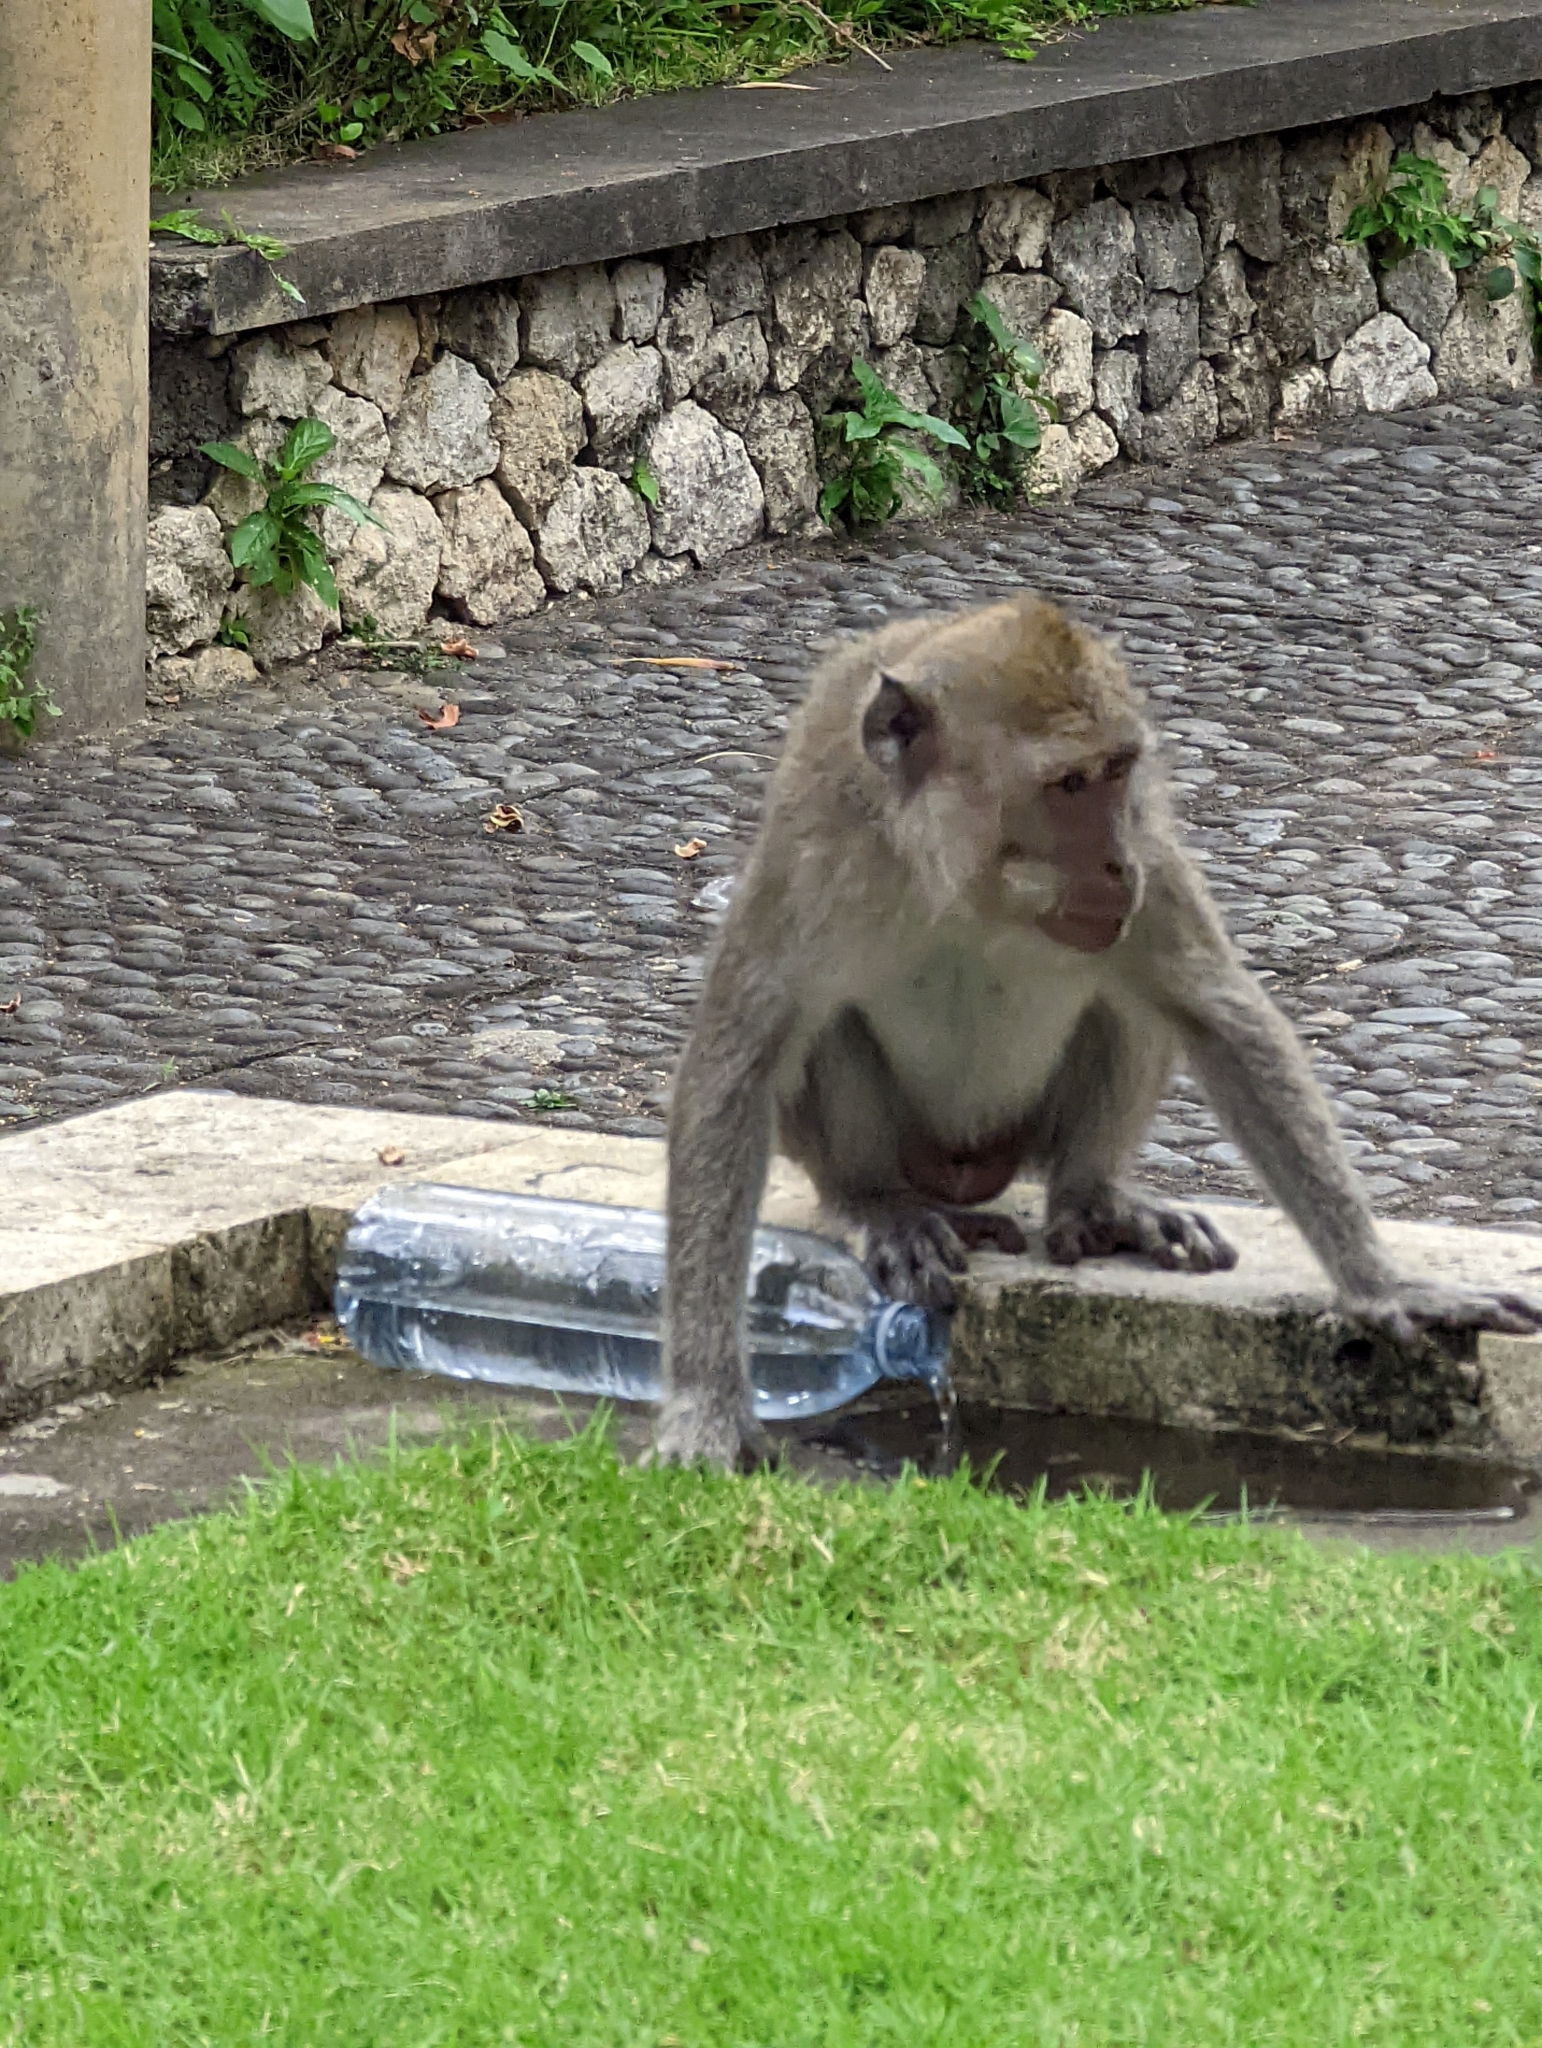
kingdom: Animalia
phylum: Chordata
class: Mammalia
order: Primates
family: Cercopithecidae
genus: Macaca
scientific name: Macaca fascicularis
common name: Crab-eating macaque
